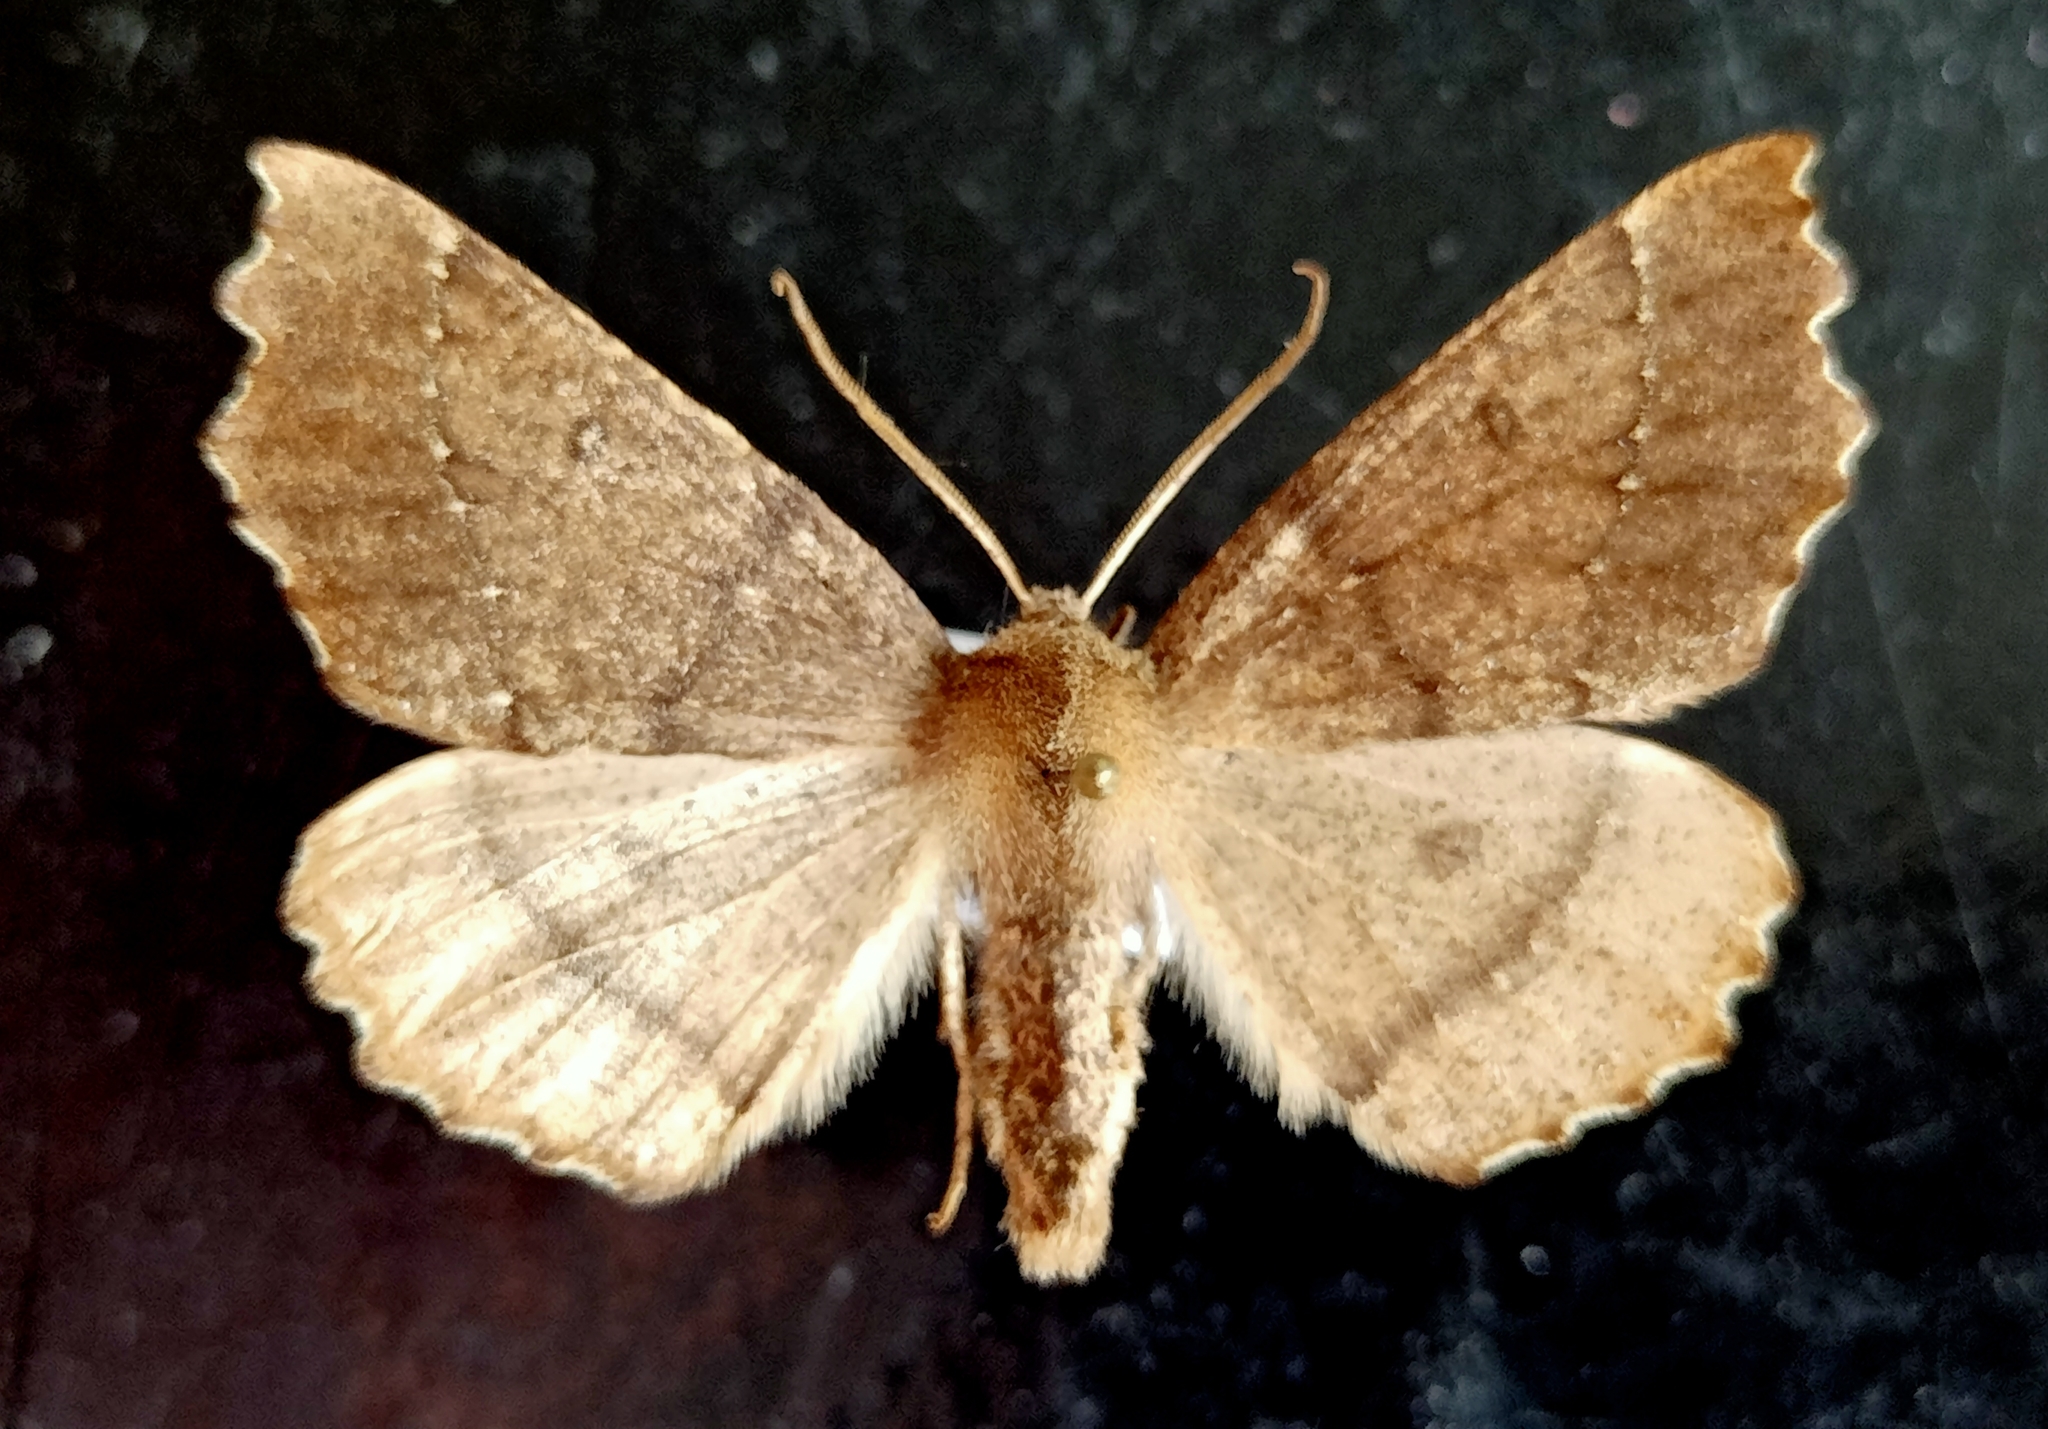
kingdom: Animalia
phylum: Arthropoda
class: Insecta
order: Lepidoptera
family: Geometridae
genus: Odontopera
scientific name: Odontopera bidentata
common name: Scalloped hazel
